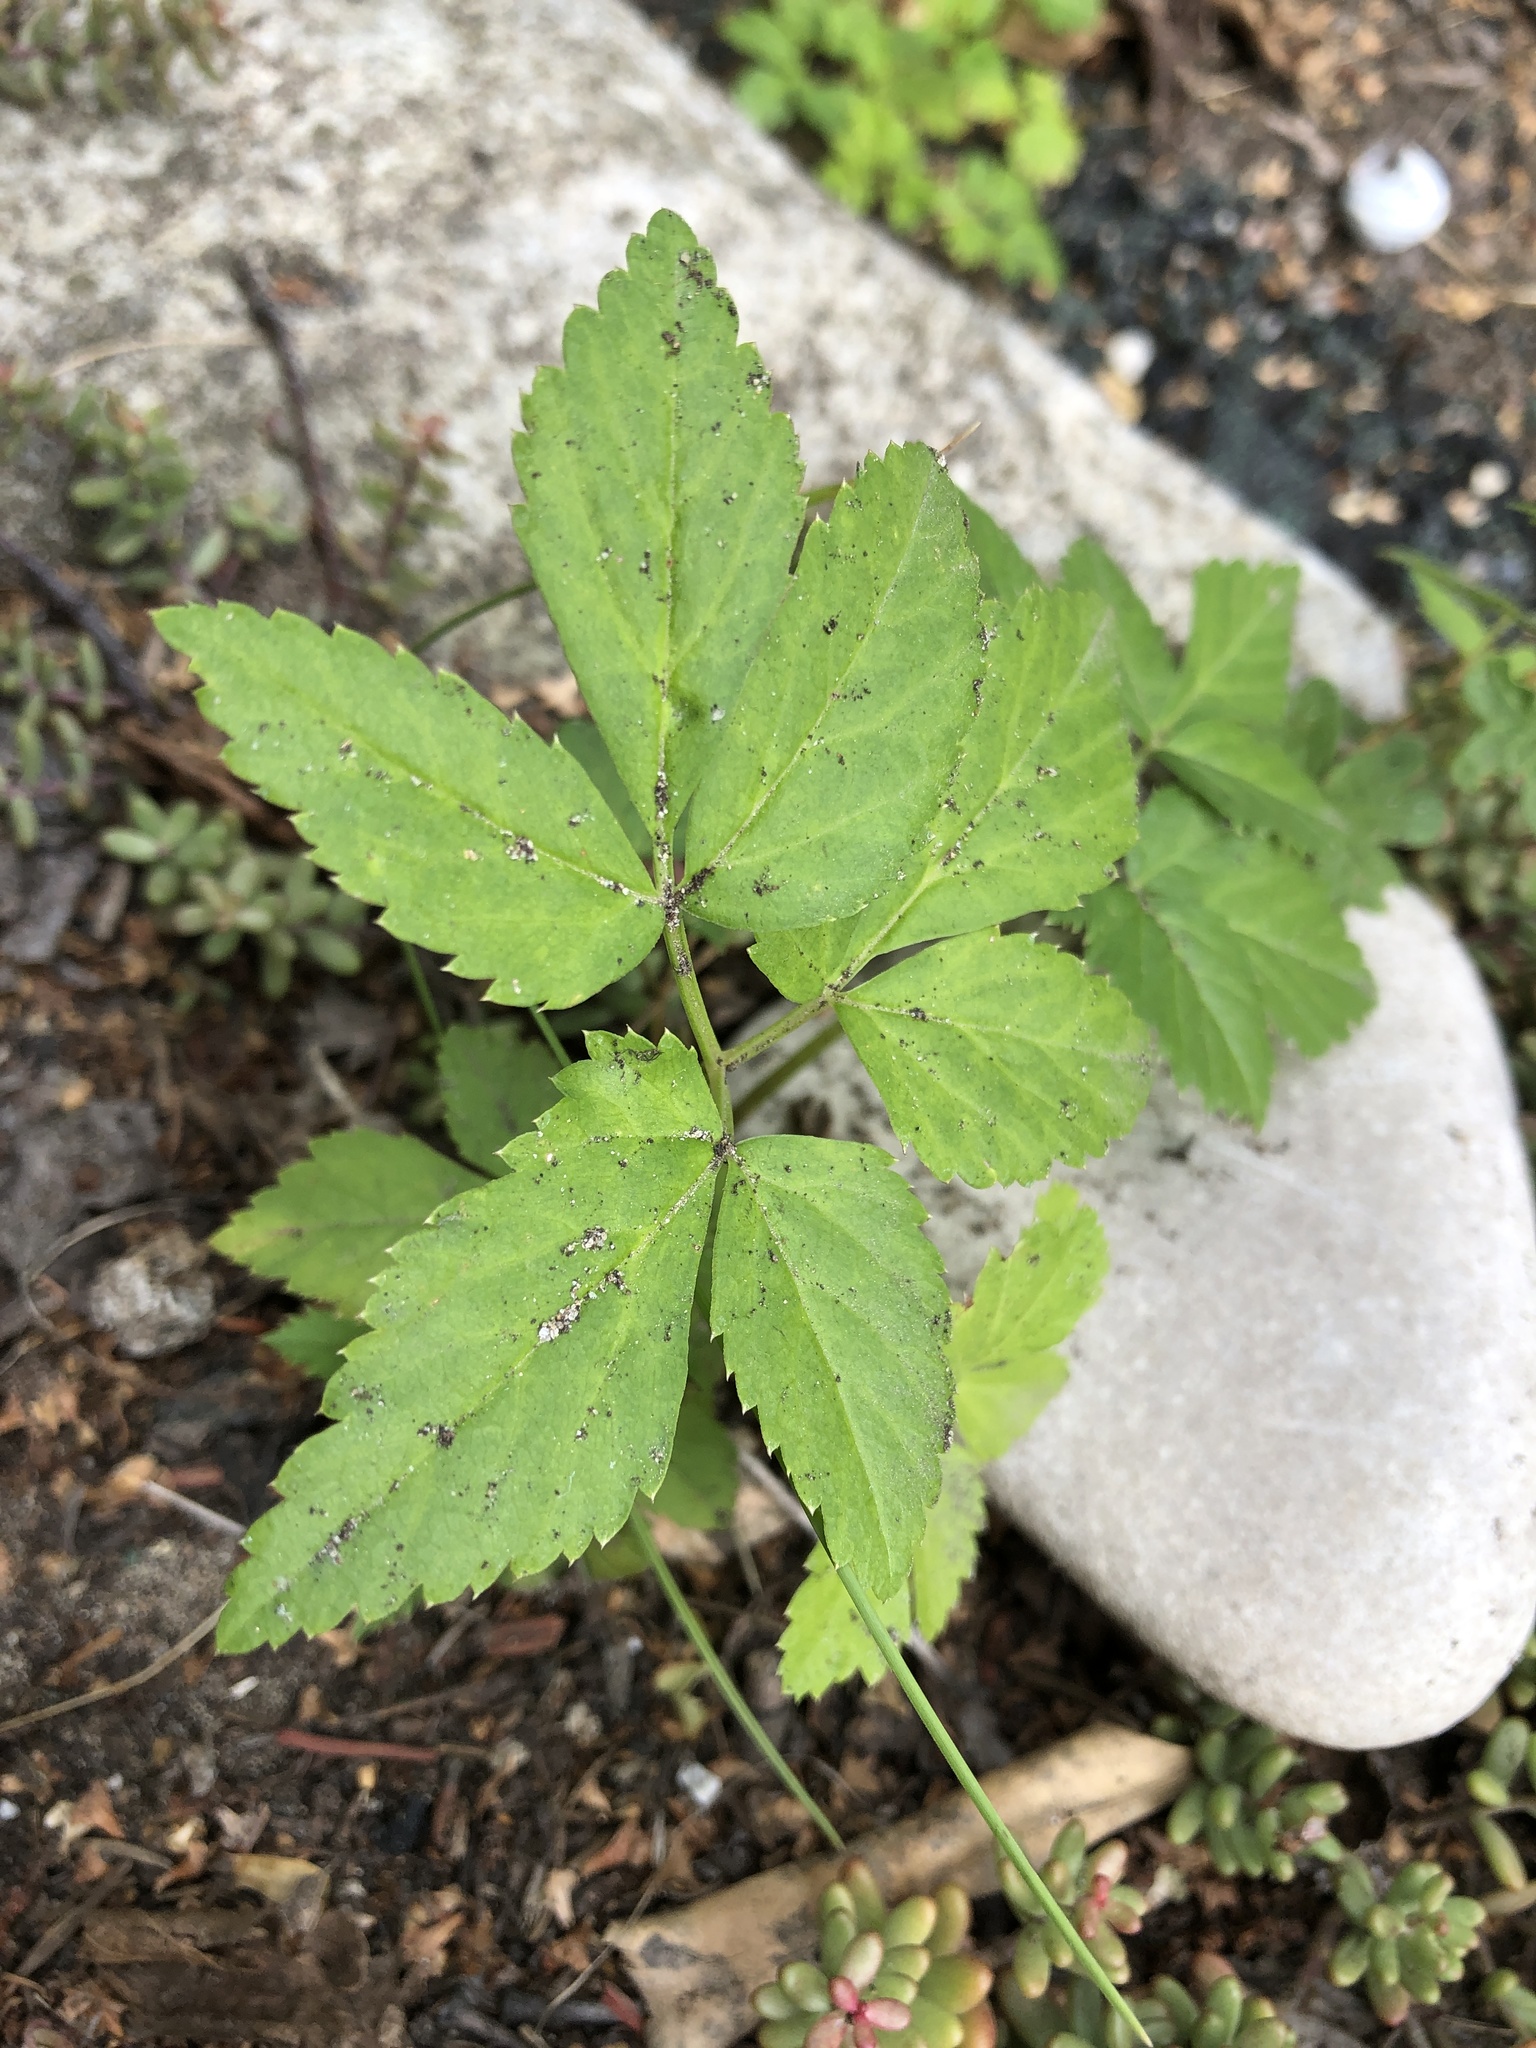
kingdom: Plantae
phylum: Tracheophyta
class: Magnoliopsida
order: Apiales
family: Apiaceae
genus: Aegopodium
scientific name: Aegopodium podagraria
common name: Ground-elder
